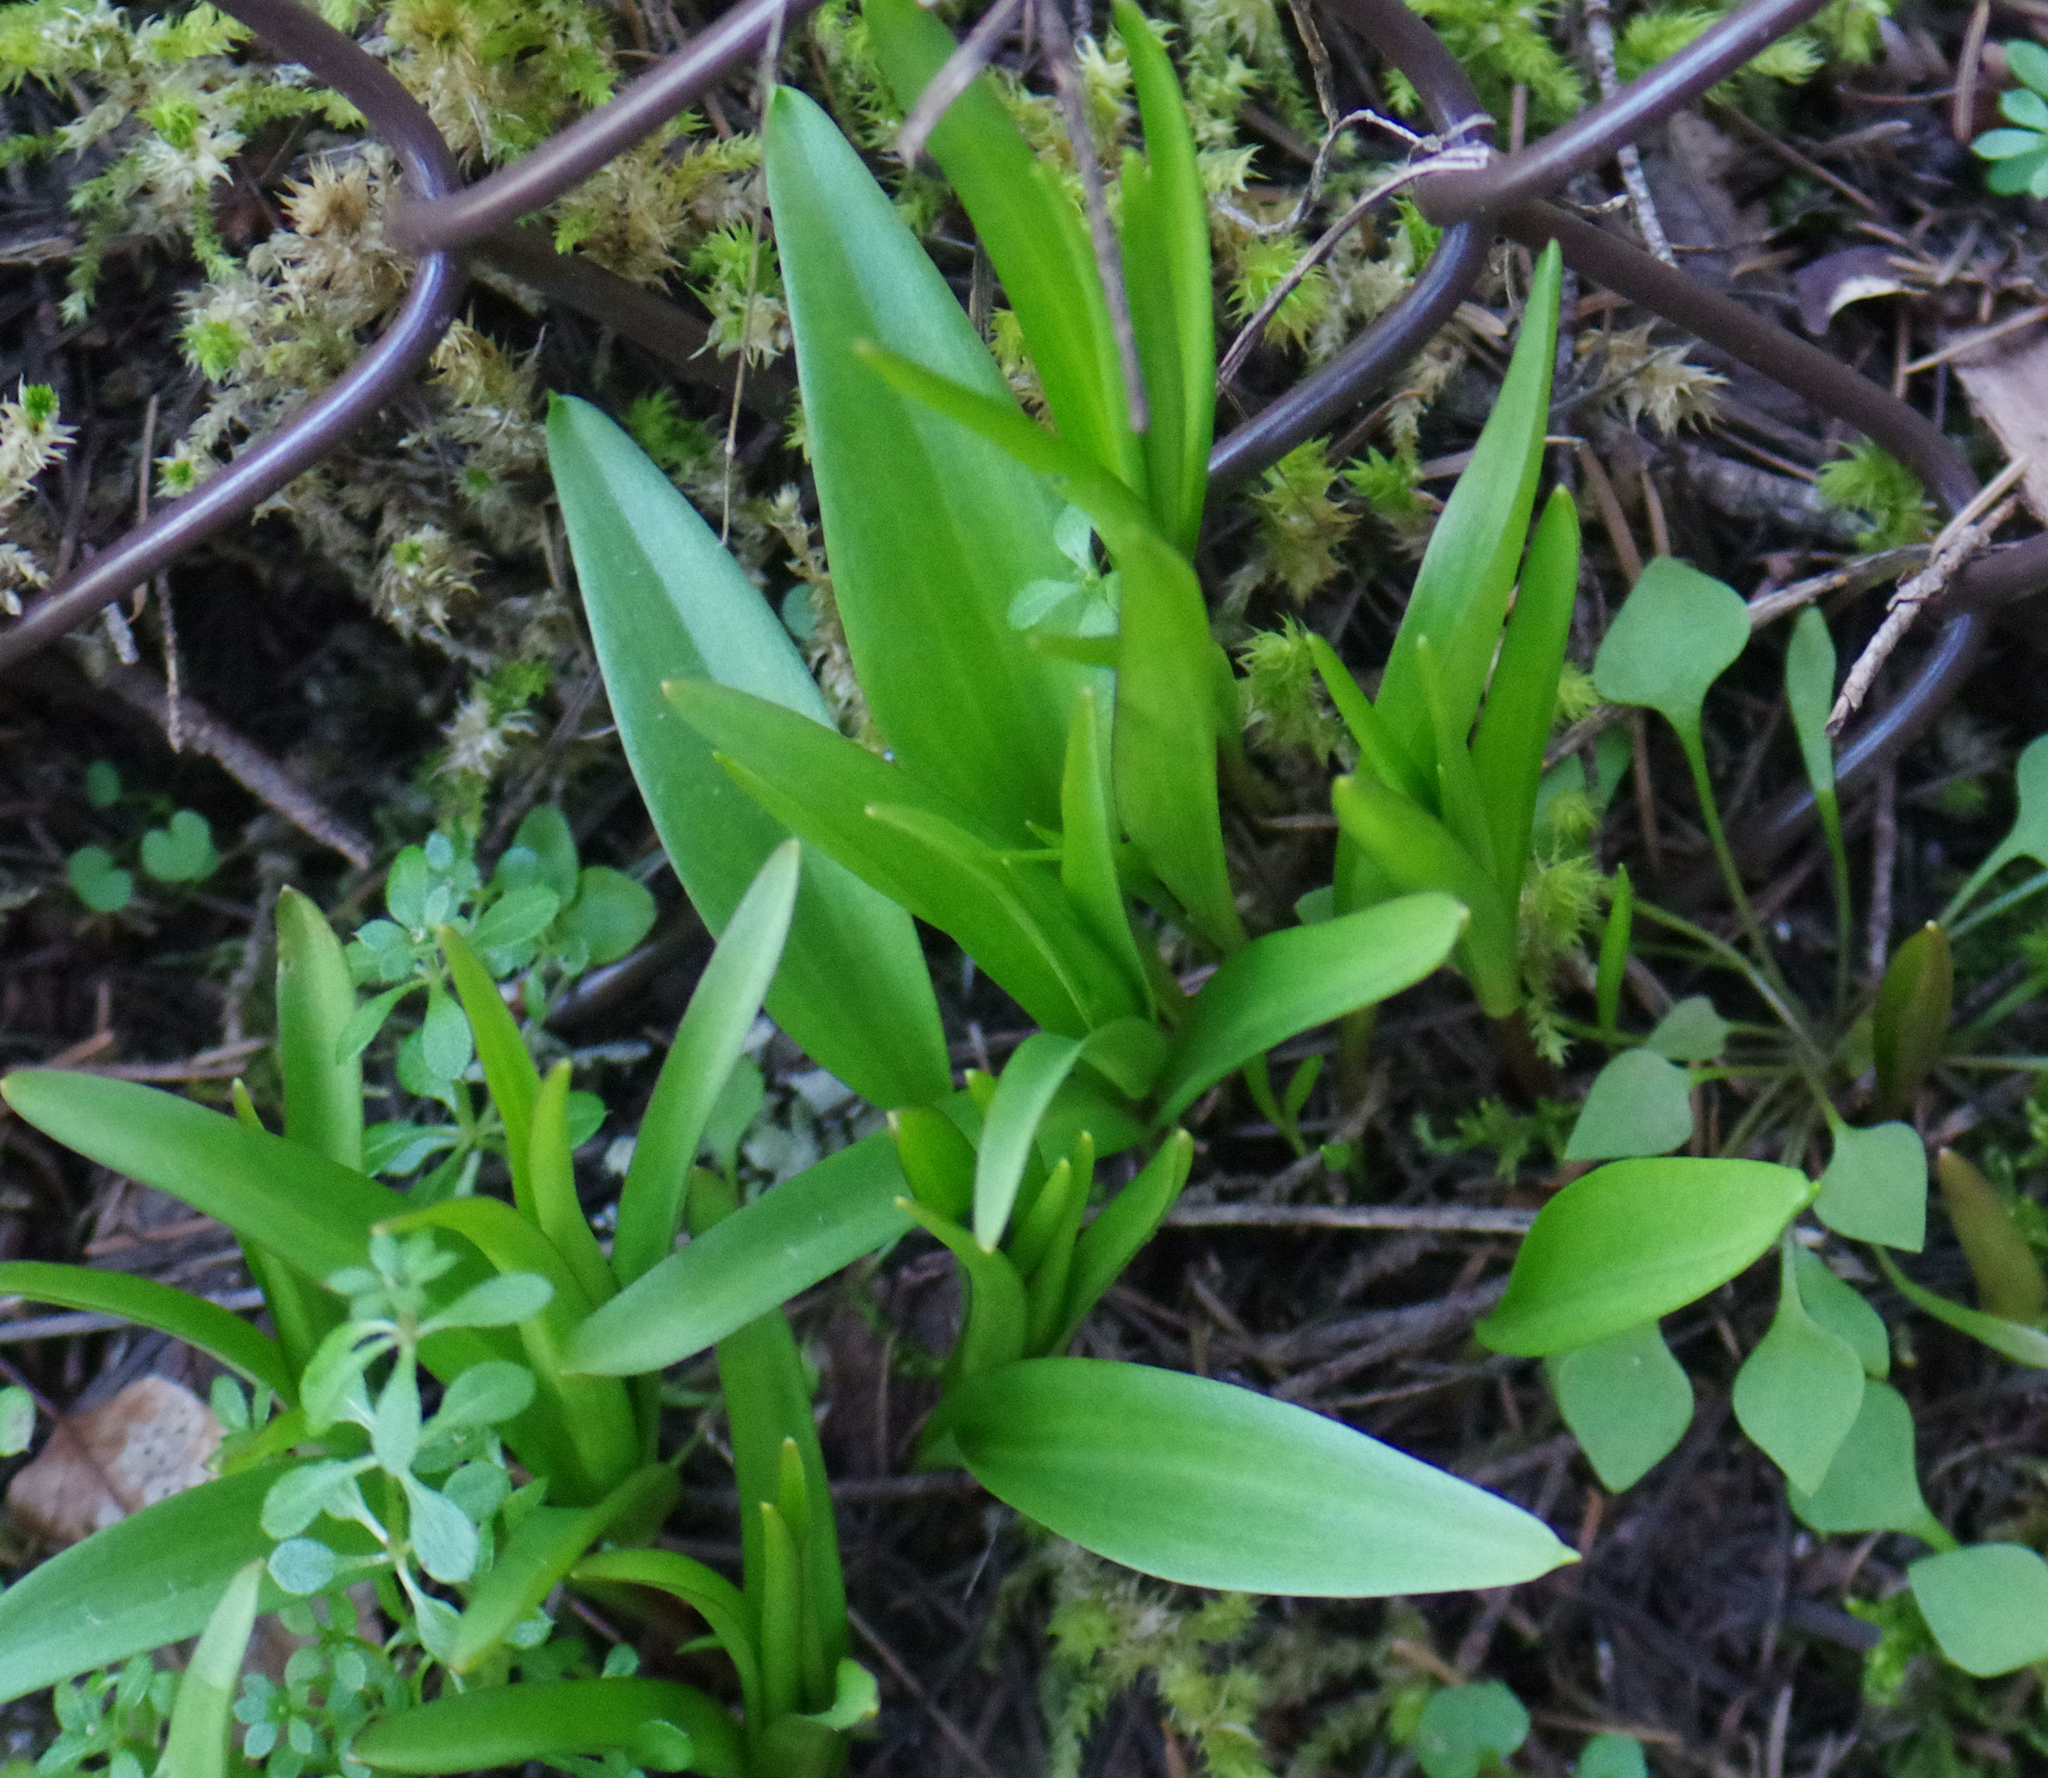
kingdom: Plantae
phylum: Tracheophyta
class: Liliopsida
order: Liliales
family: Liliaceae
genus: Fritillaria
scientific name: Fritillaria affinis
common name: Ojai fritillary
